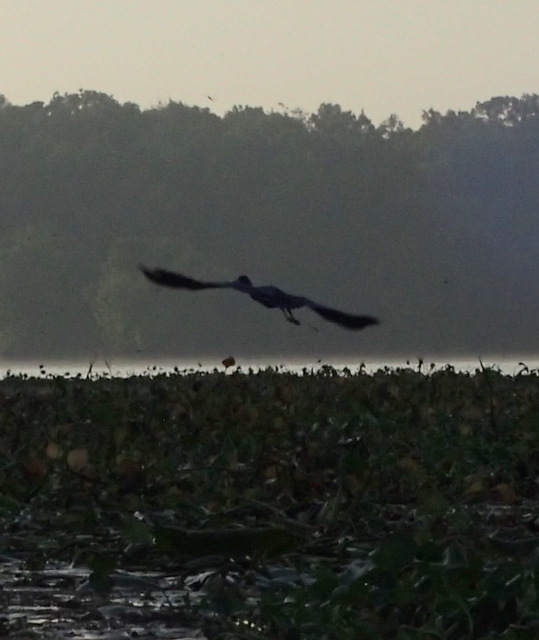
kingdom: Animalia
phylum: Chordata
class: Aves
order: Pelecaniformes
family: Ardeidae
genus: Egretta
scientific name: Egretta caerulea
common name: Little blue heron
